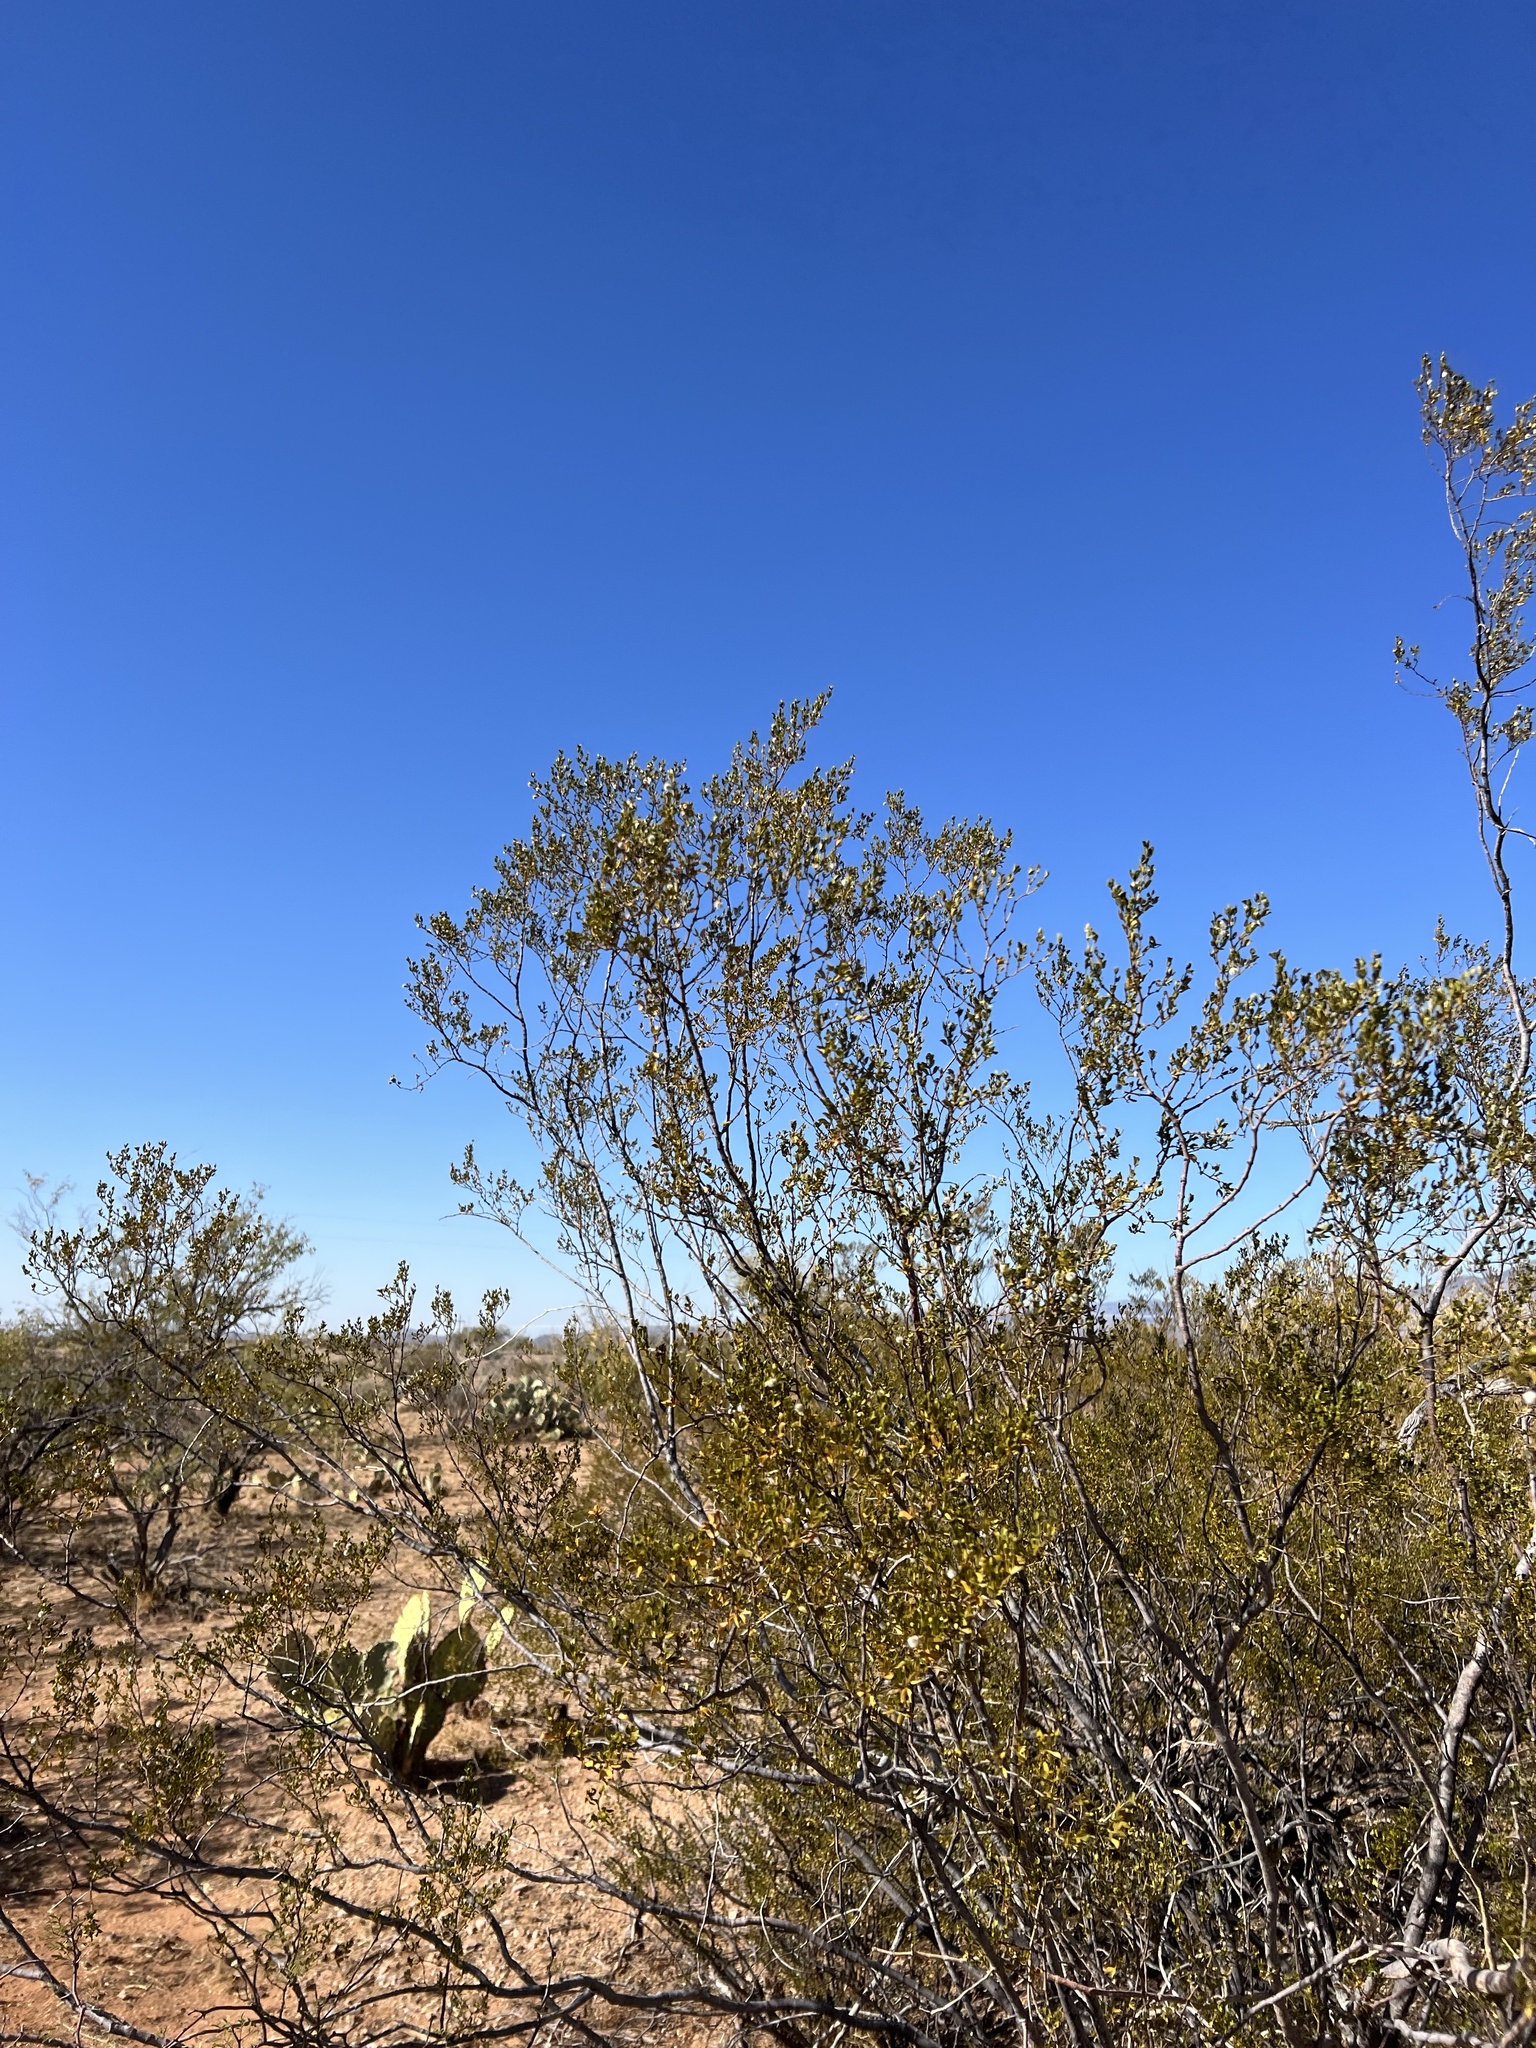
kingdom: Plantae
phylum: Tracheophyta
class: Magnoliopsida
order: Zygophyllales
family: Zygophyllaceae
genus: Larrea
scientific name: Larrea tridentata
